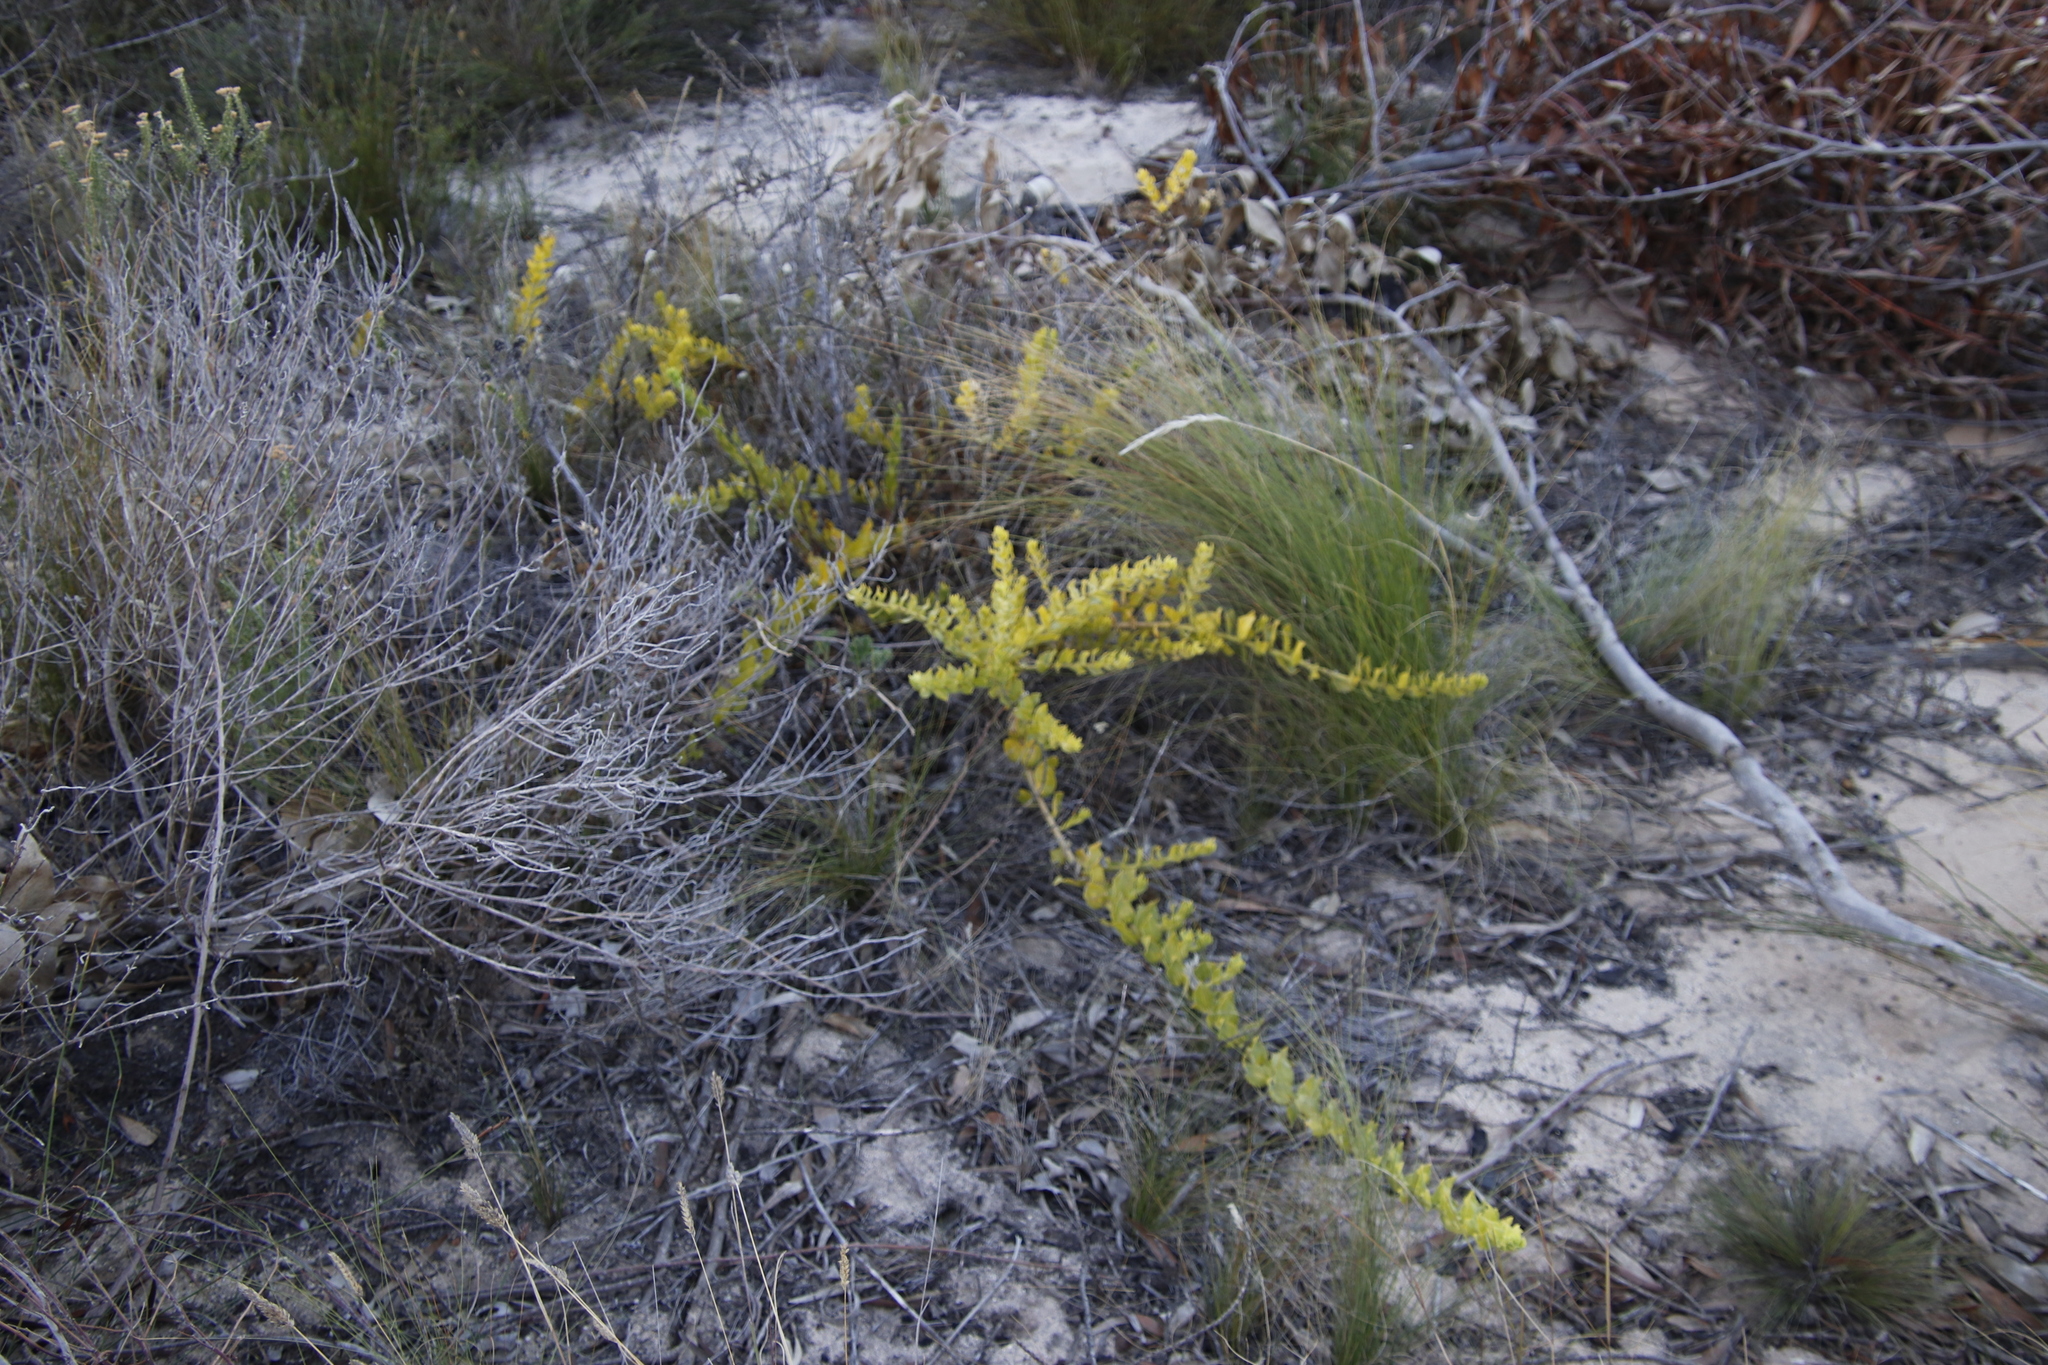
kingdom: Plantae
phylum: Tracheophyta
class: Magnoliopsida
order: Lamiales
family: Scrophulariaceae
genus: Oftia
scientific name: Oftia africana
